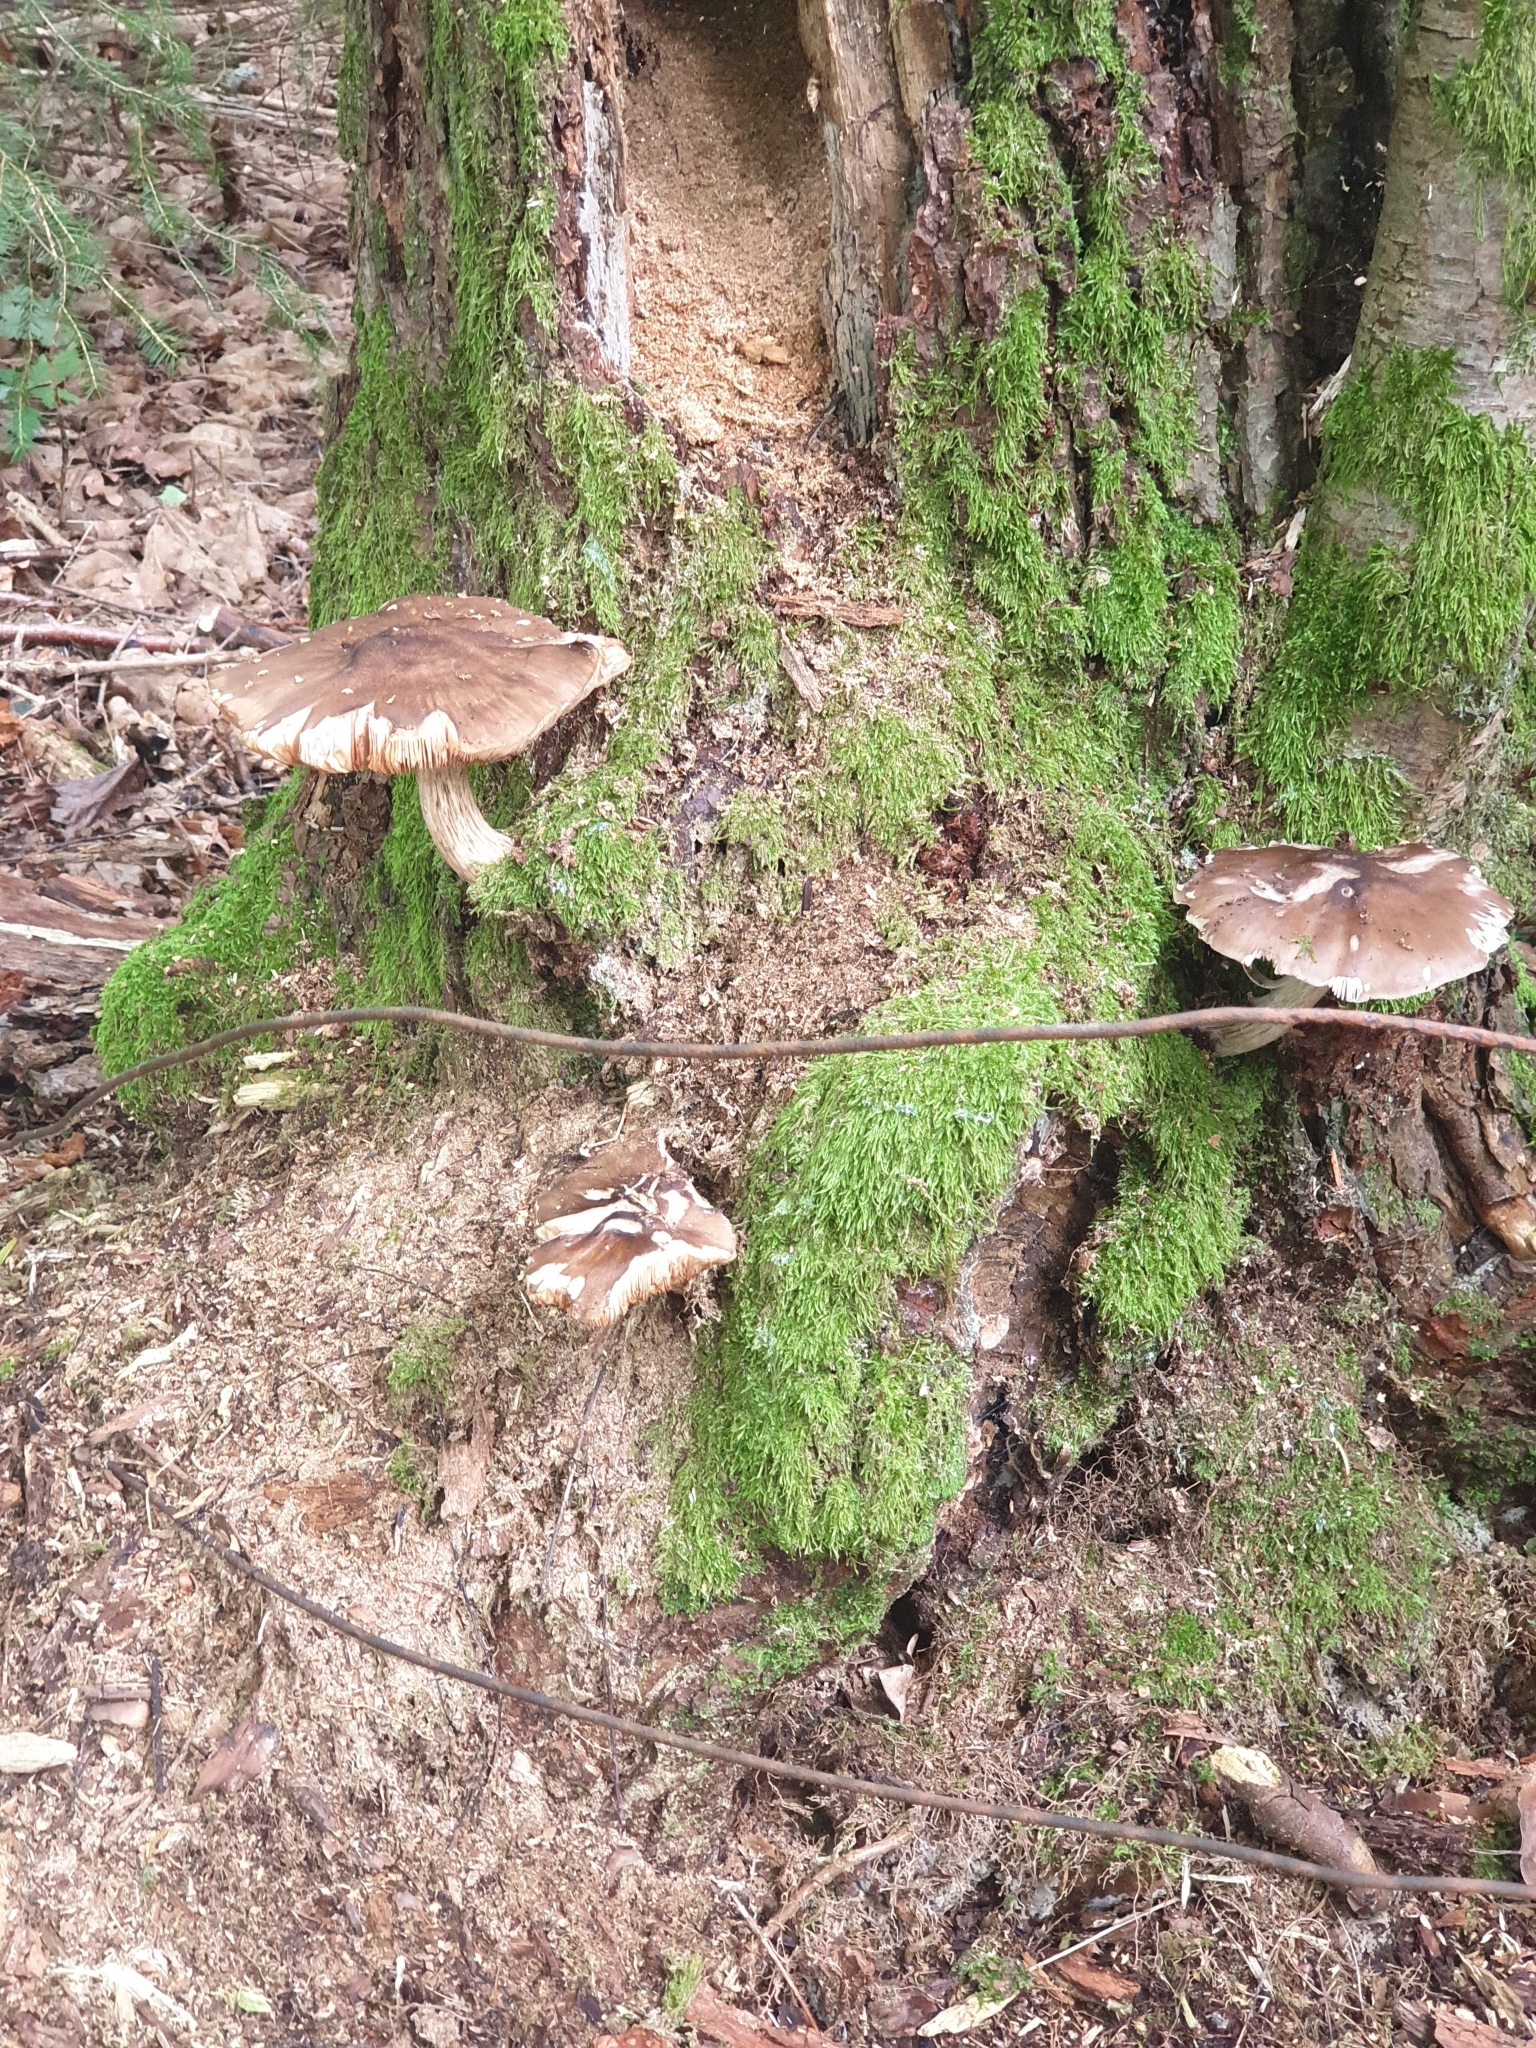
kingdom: Fungi
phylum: Basidiomycota
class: Agaricomycetes
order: Agaricales
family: Pluteaceae
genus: Pluteus
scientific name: Pluteus cervinus
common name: Deer shield
